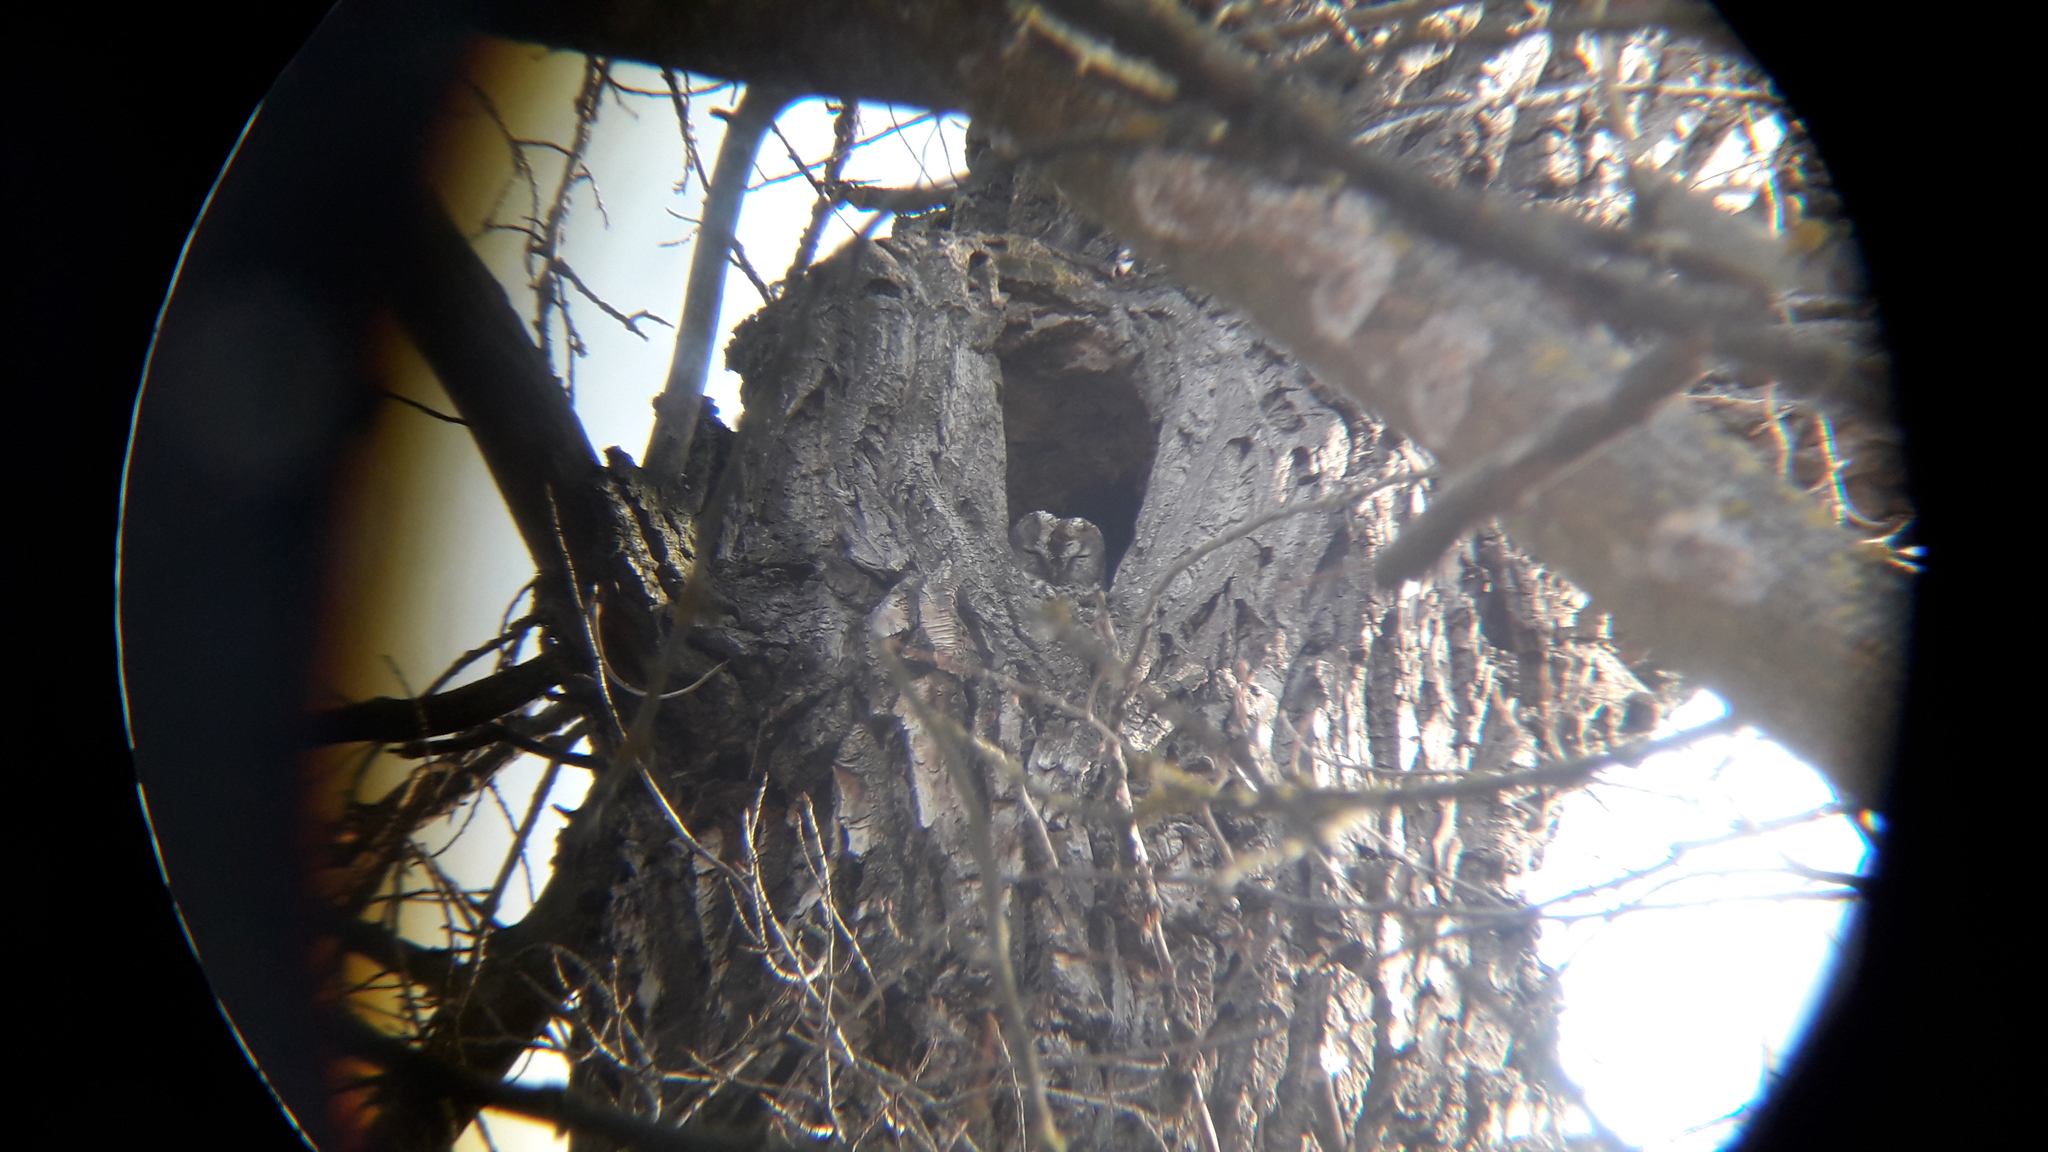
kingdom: Animalia
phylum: Chordata
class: Aves
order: Strigiformes
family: Strigidae
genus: Strix
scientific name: Strix aluco
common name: Tawny owl
